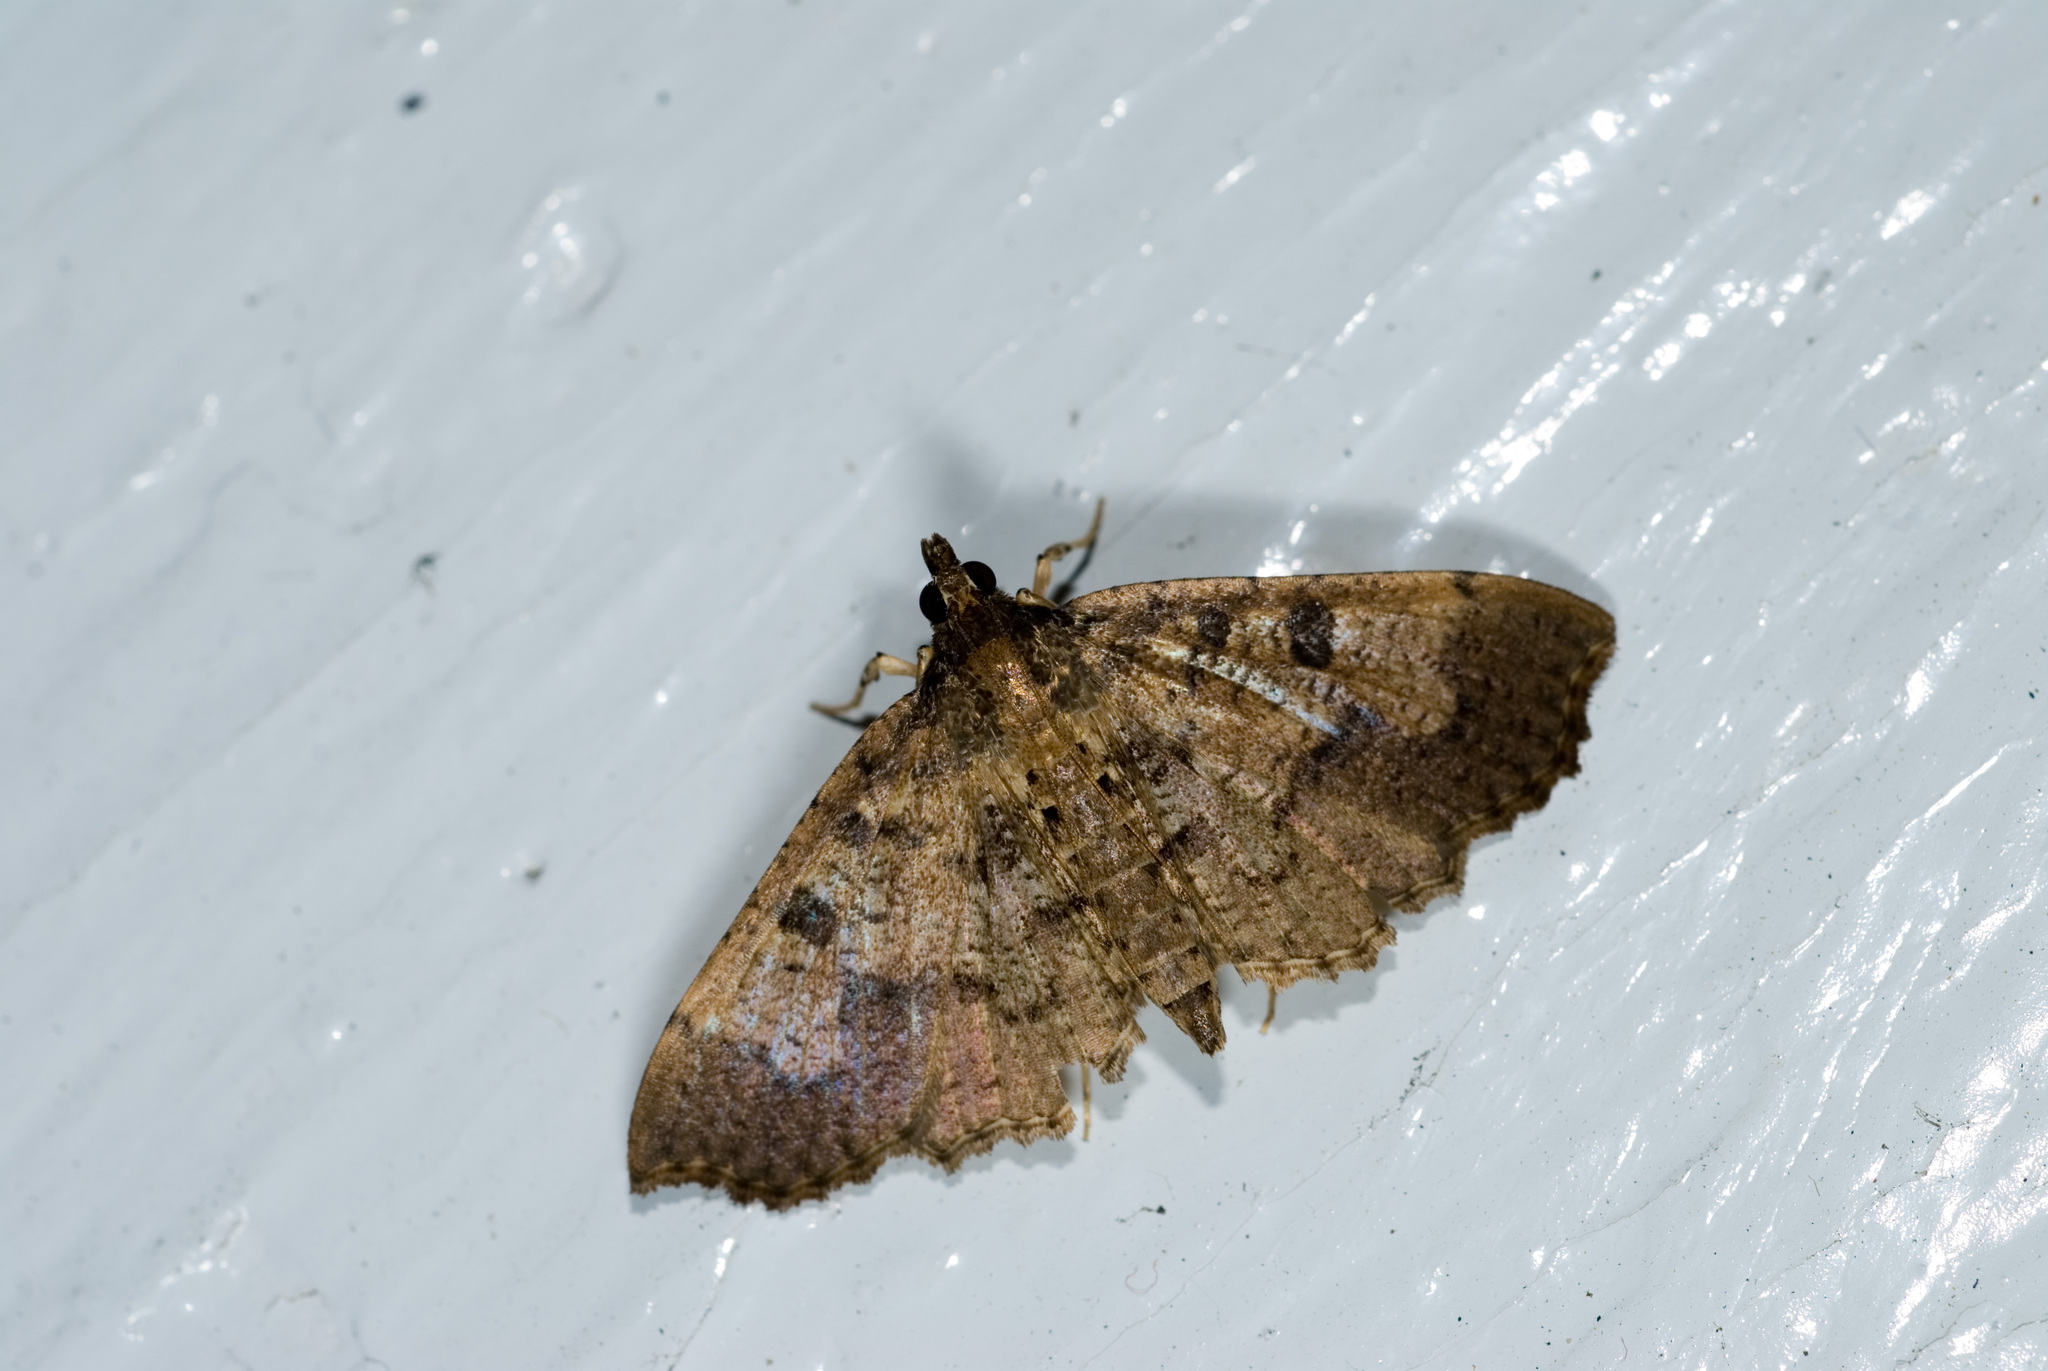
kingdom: Animalia
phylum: Arthropoda
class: Insecta
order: Lepidoptera
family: Crambidae
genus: Ceratarcha
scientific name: Ceratarcha umbrosa
